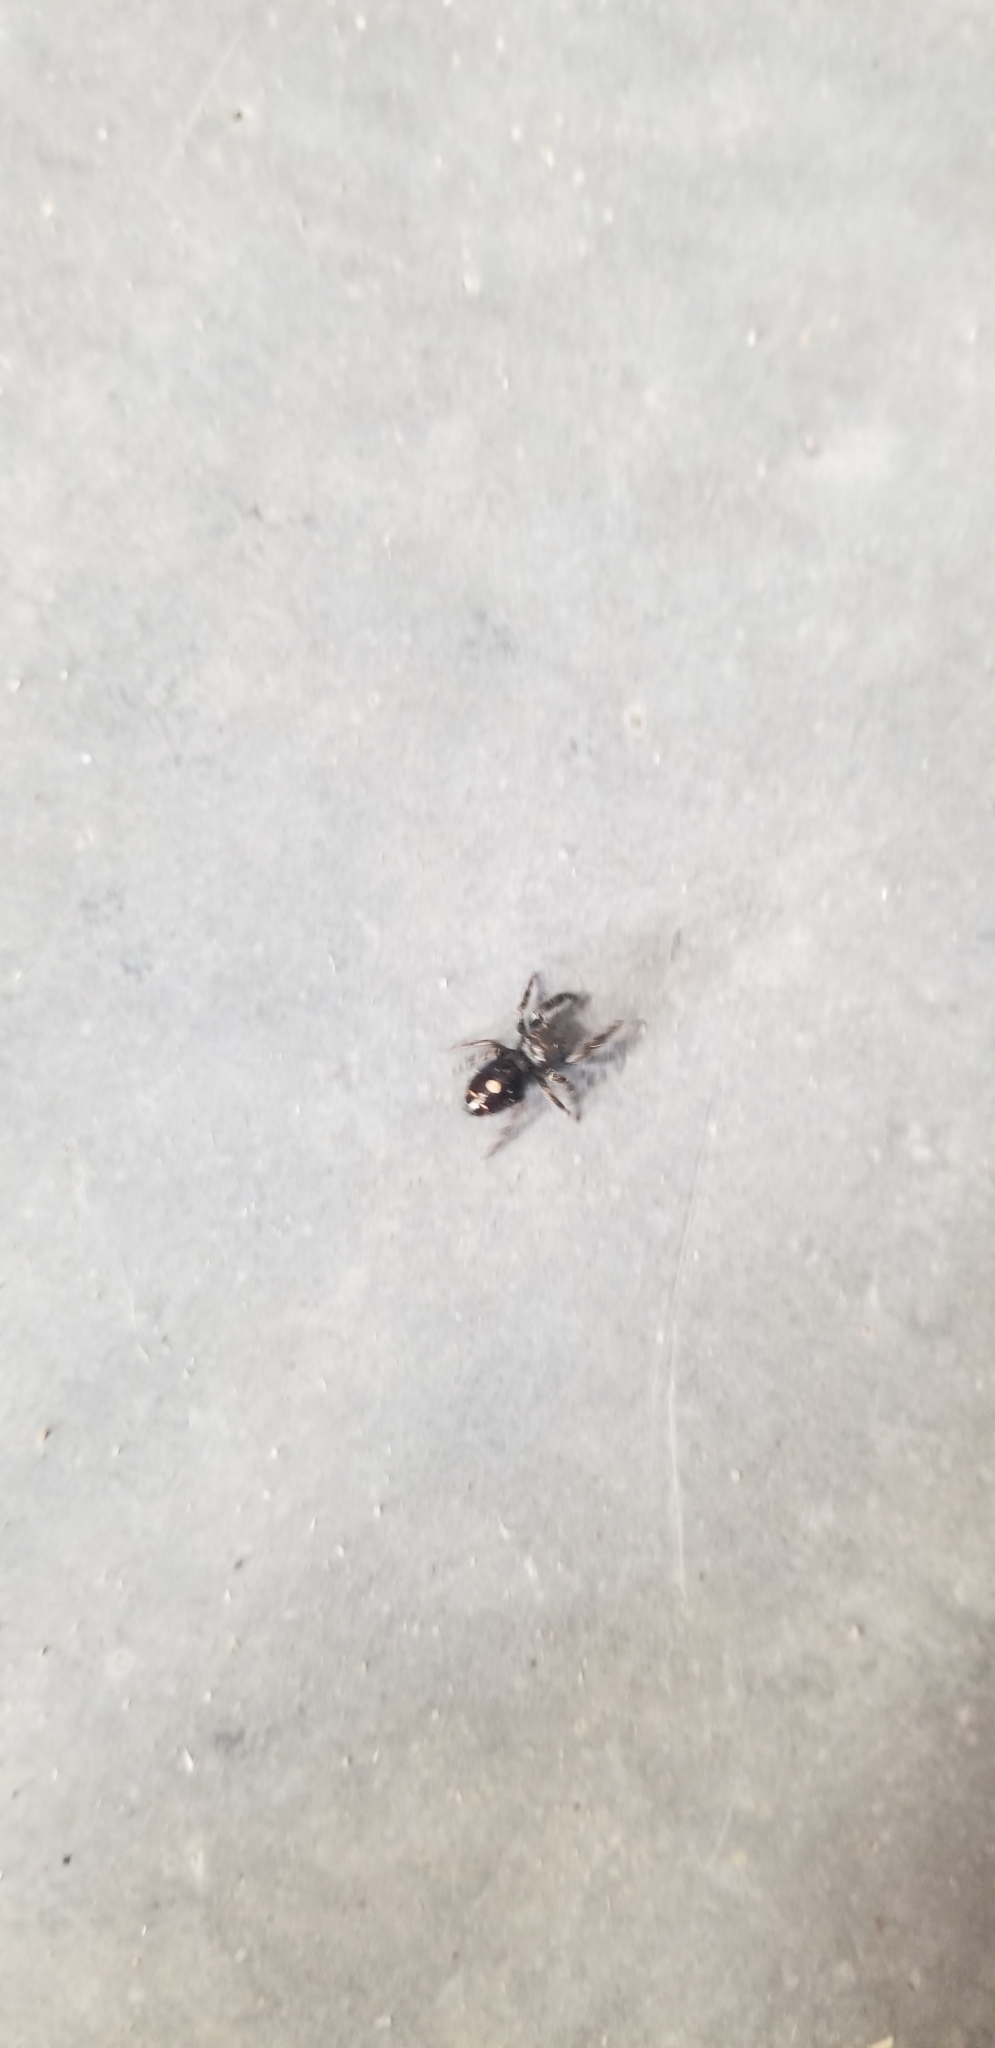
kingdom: Animalia
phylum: Arthropoda
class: Arachnida
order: Araneae
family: Salticidae
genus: Phidippus
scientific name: Phidippus audax
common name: Bold jumper
